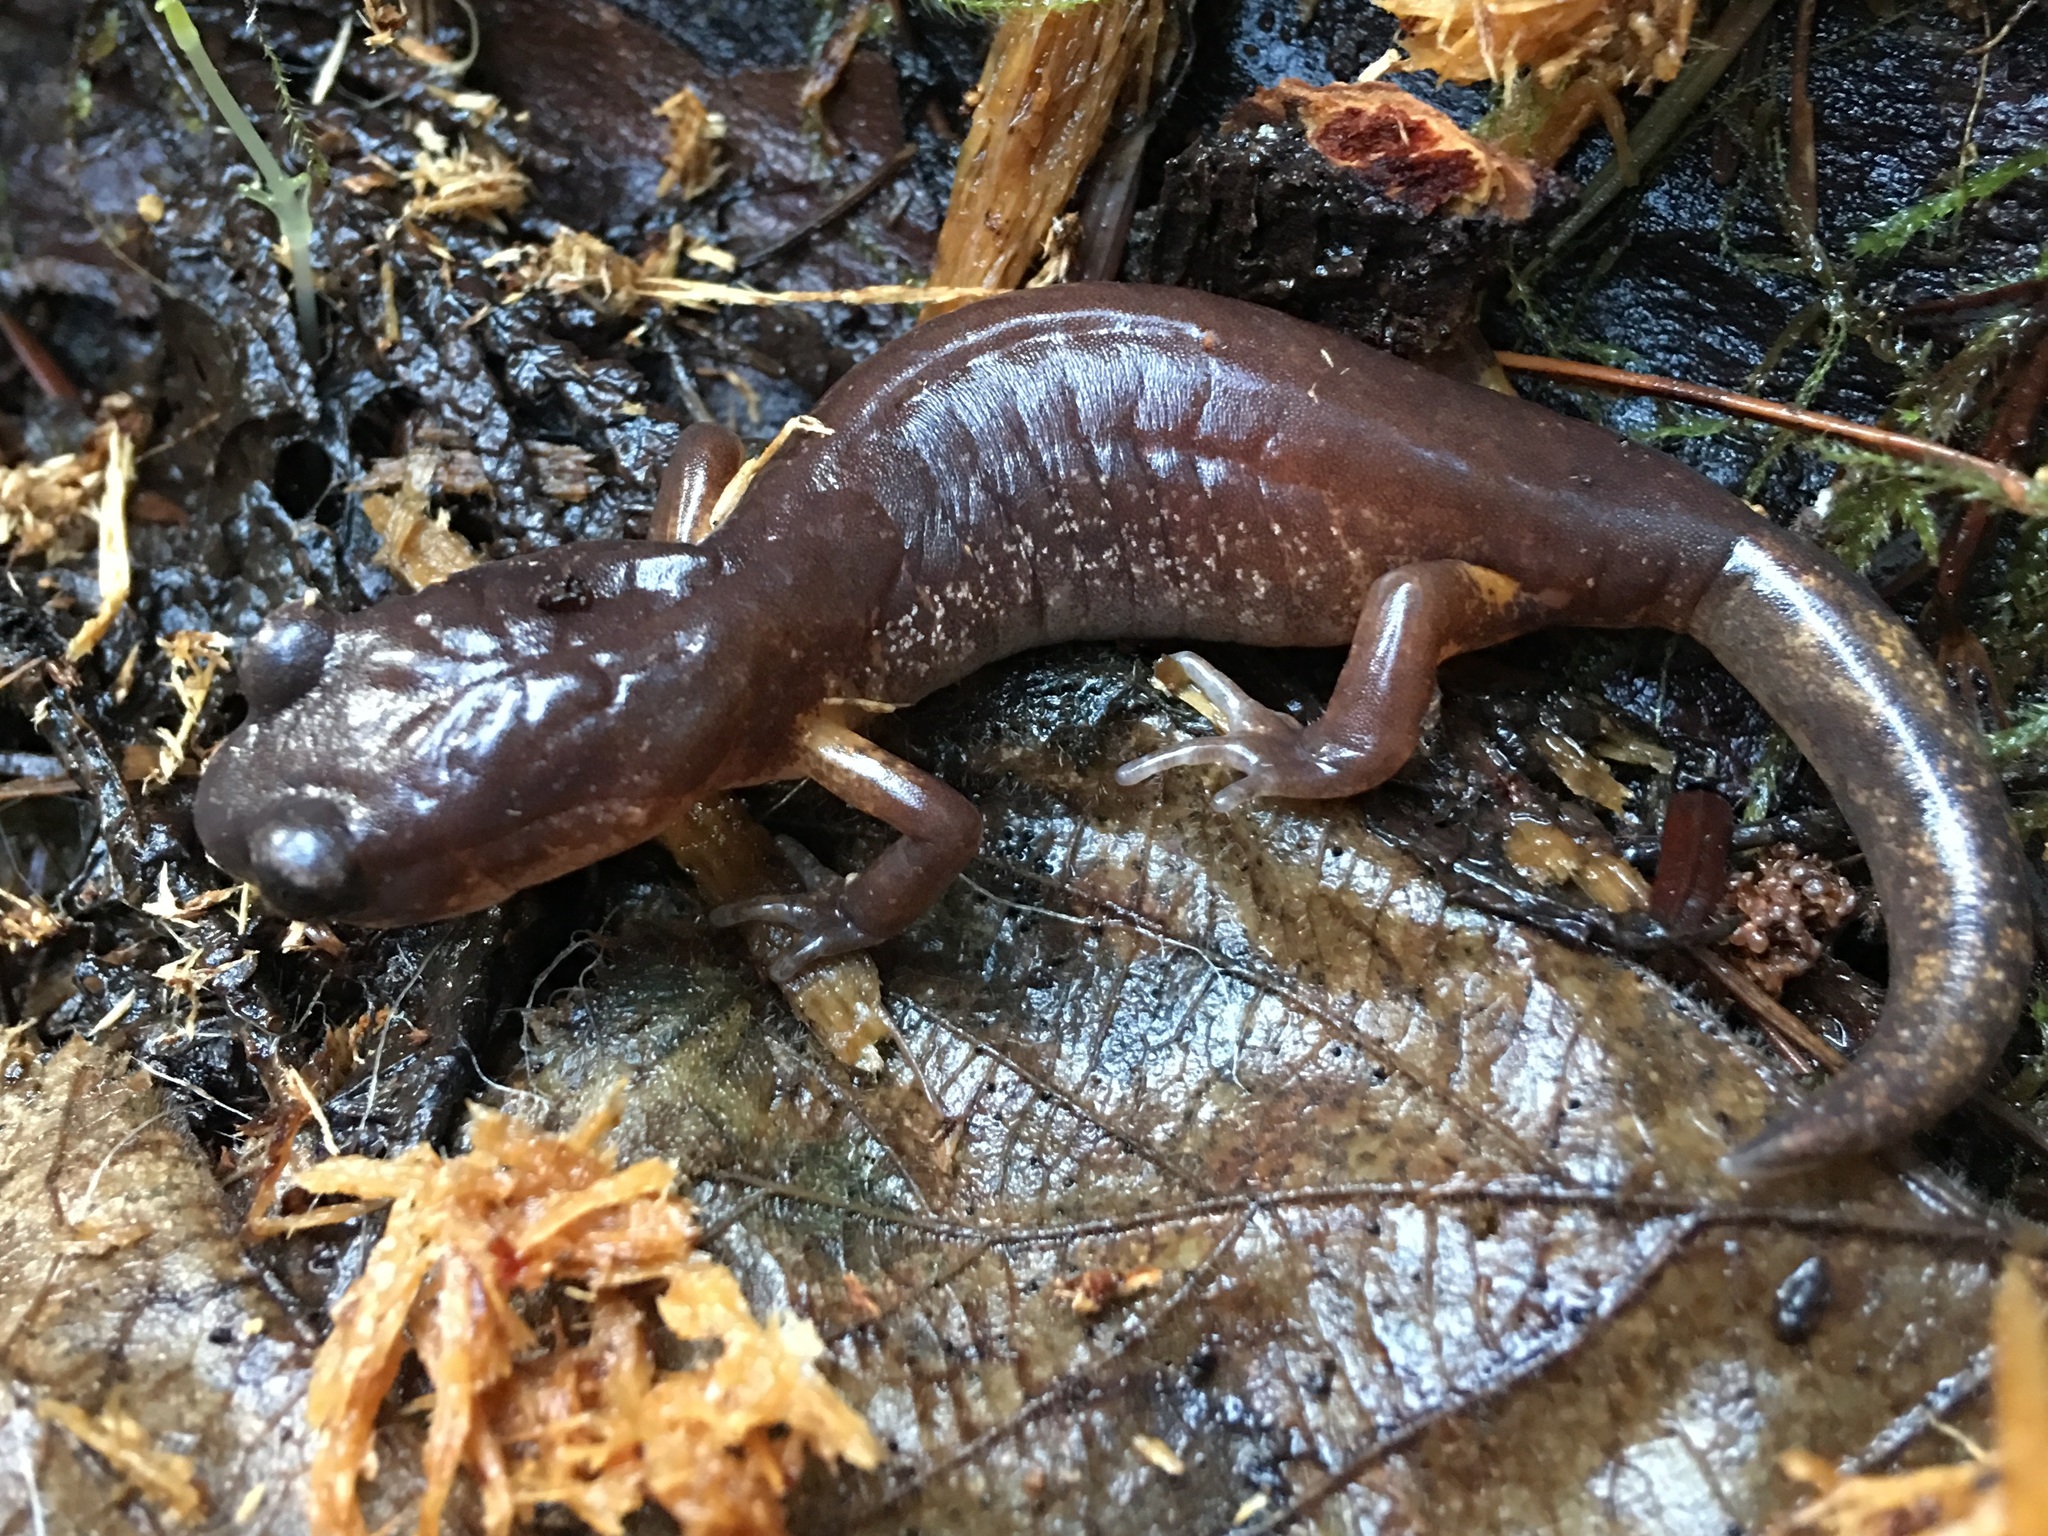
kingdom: Animalia
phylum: Chordata
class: Amphibia
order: Caudata
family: Plethodontidae
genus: Ensatina
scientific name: Ensatina eschscholtzii
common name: Ensatina
